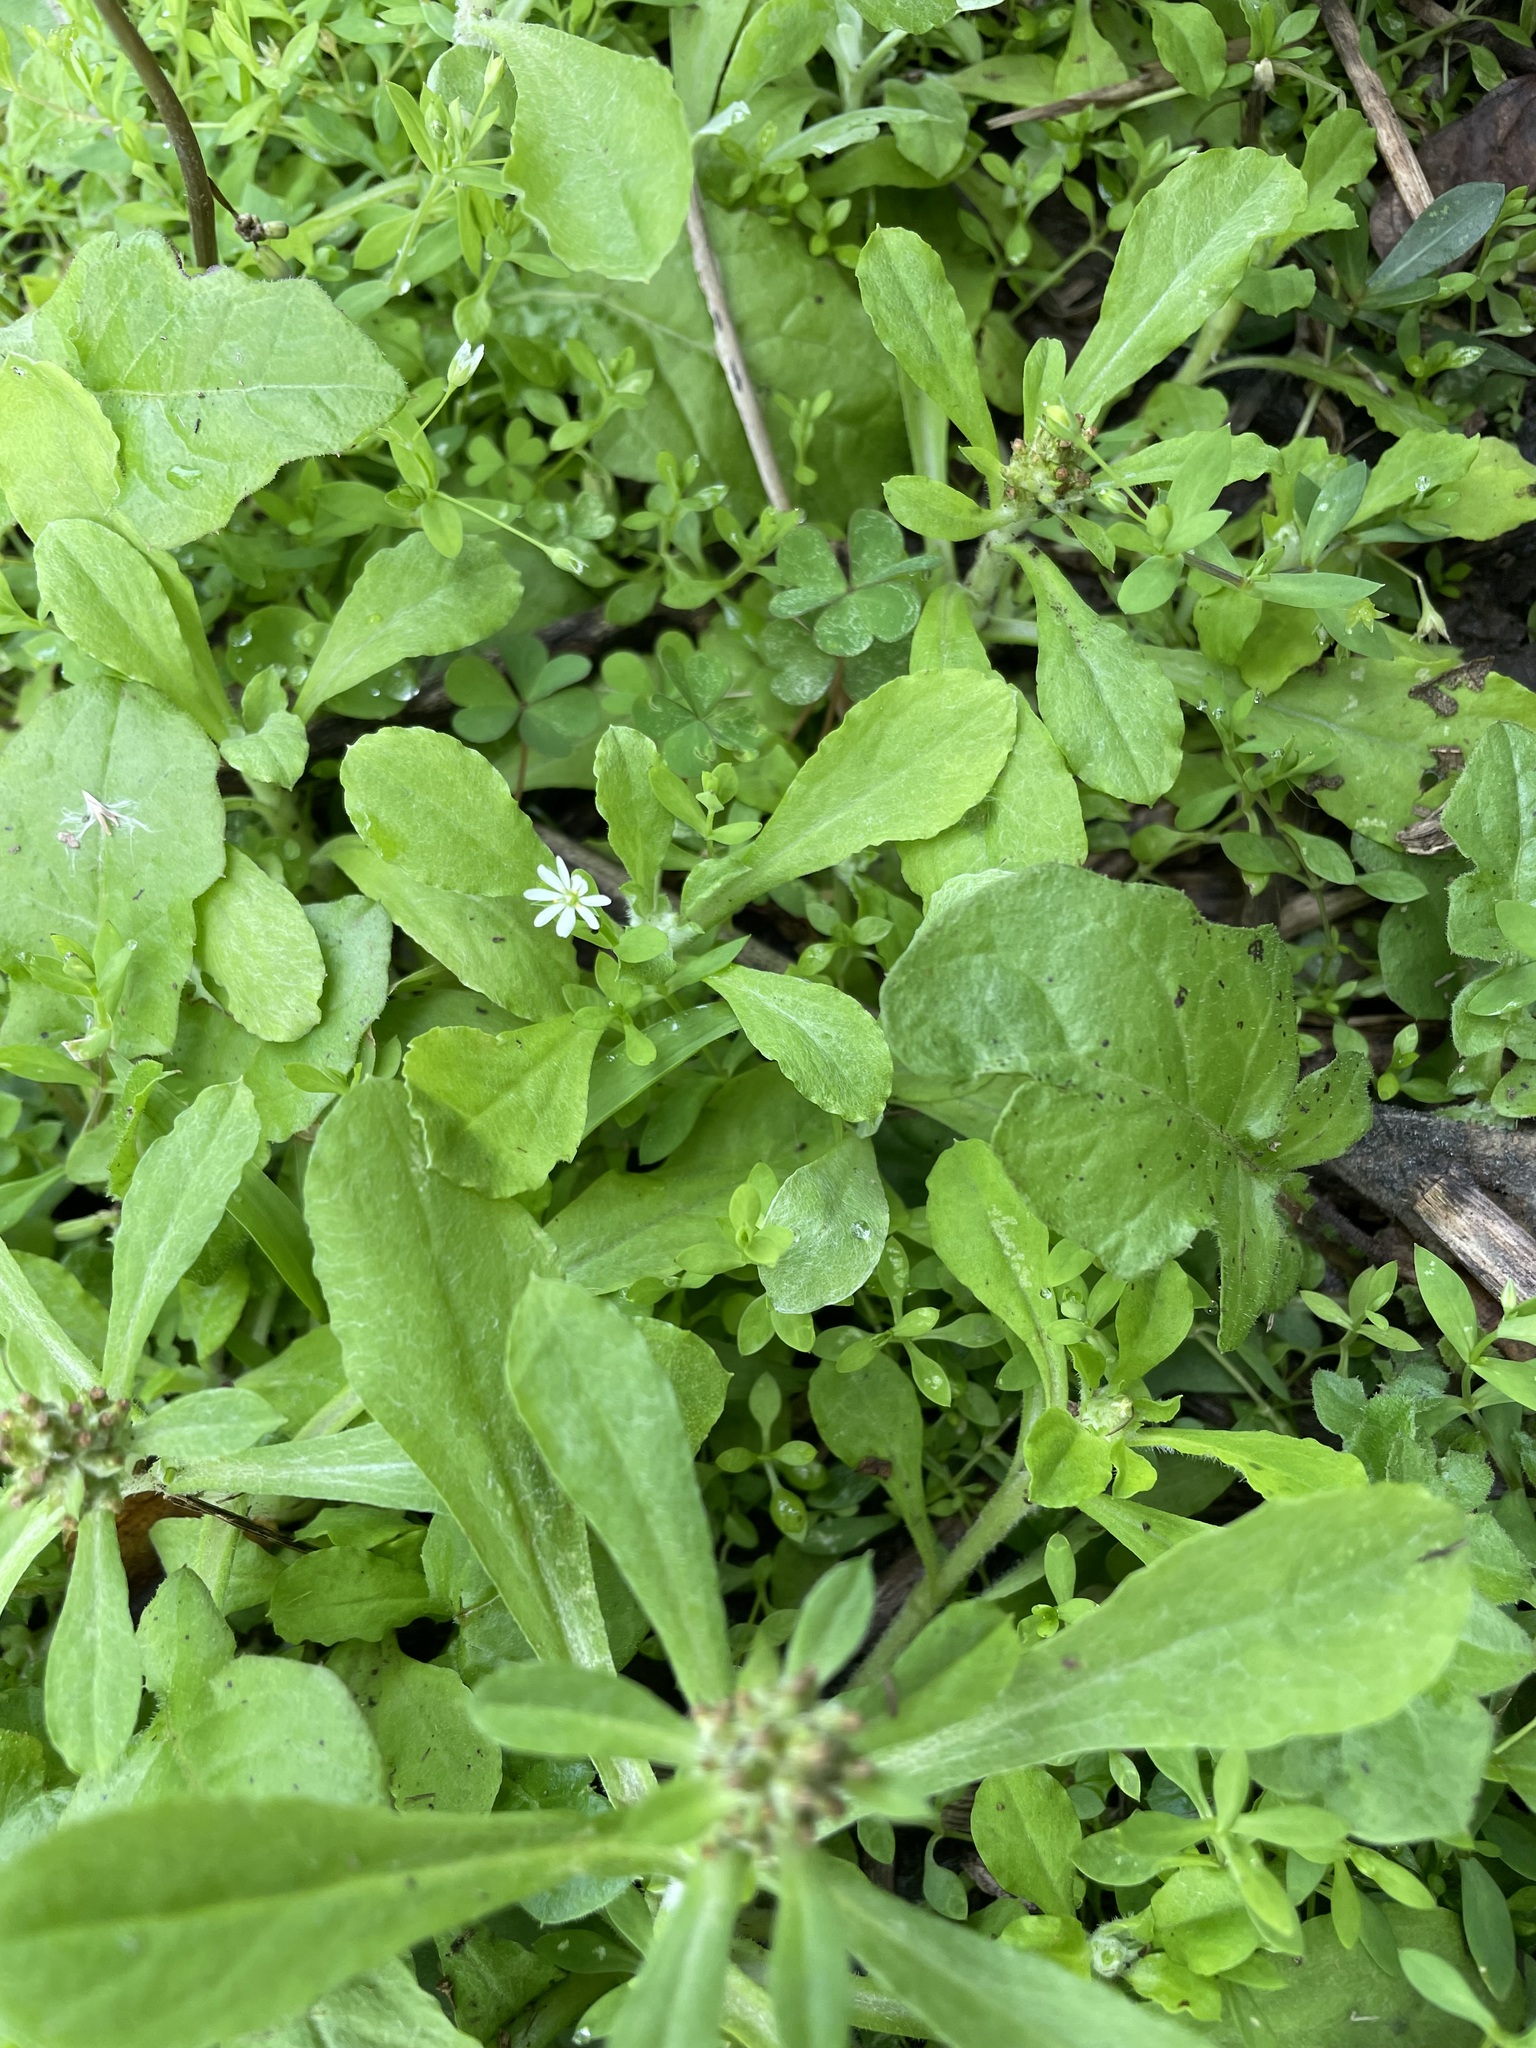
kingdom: Plantae
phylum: Tracheophyta
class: Magnoliopsida
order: Asterales
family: Asteraceae
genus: Gamochaeta
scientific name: Gamochaeta purpurea
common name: Purple cudweed
